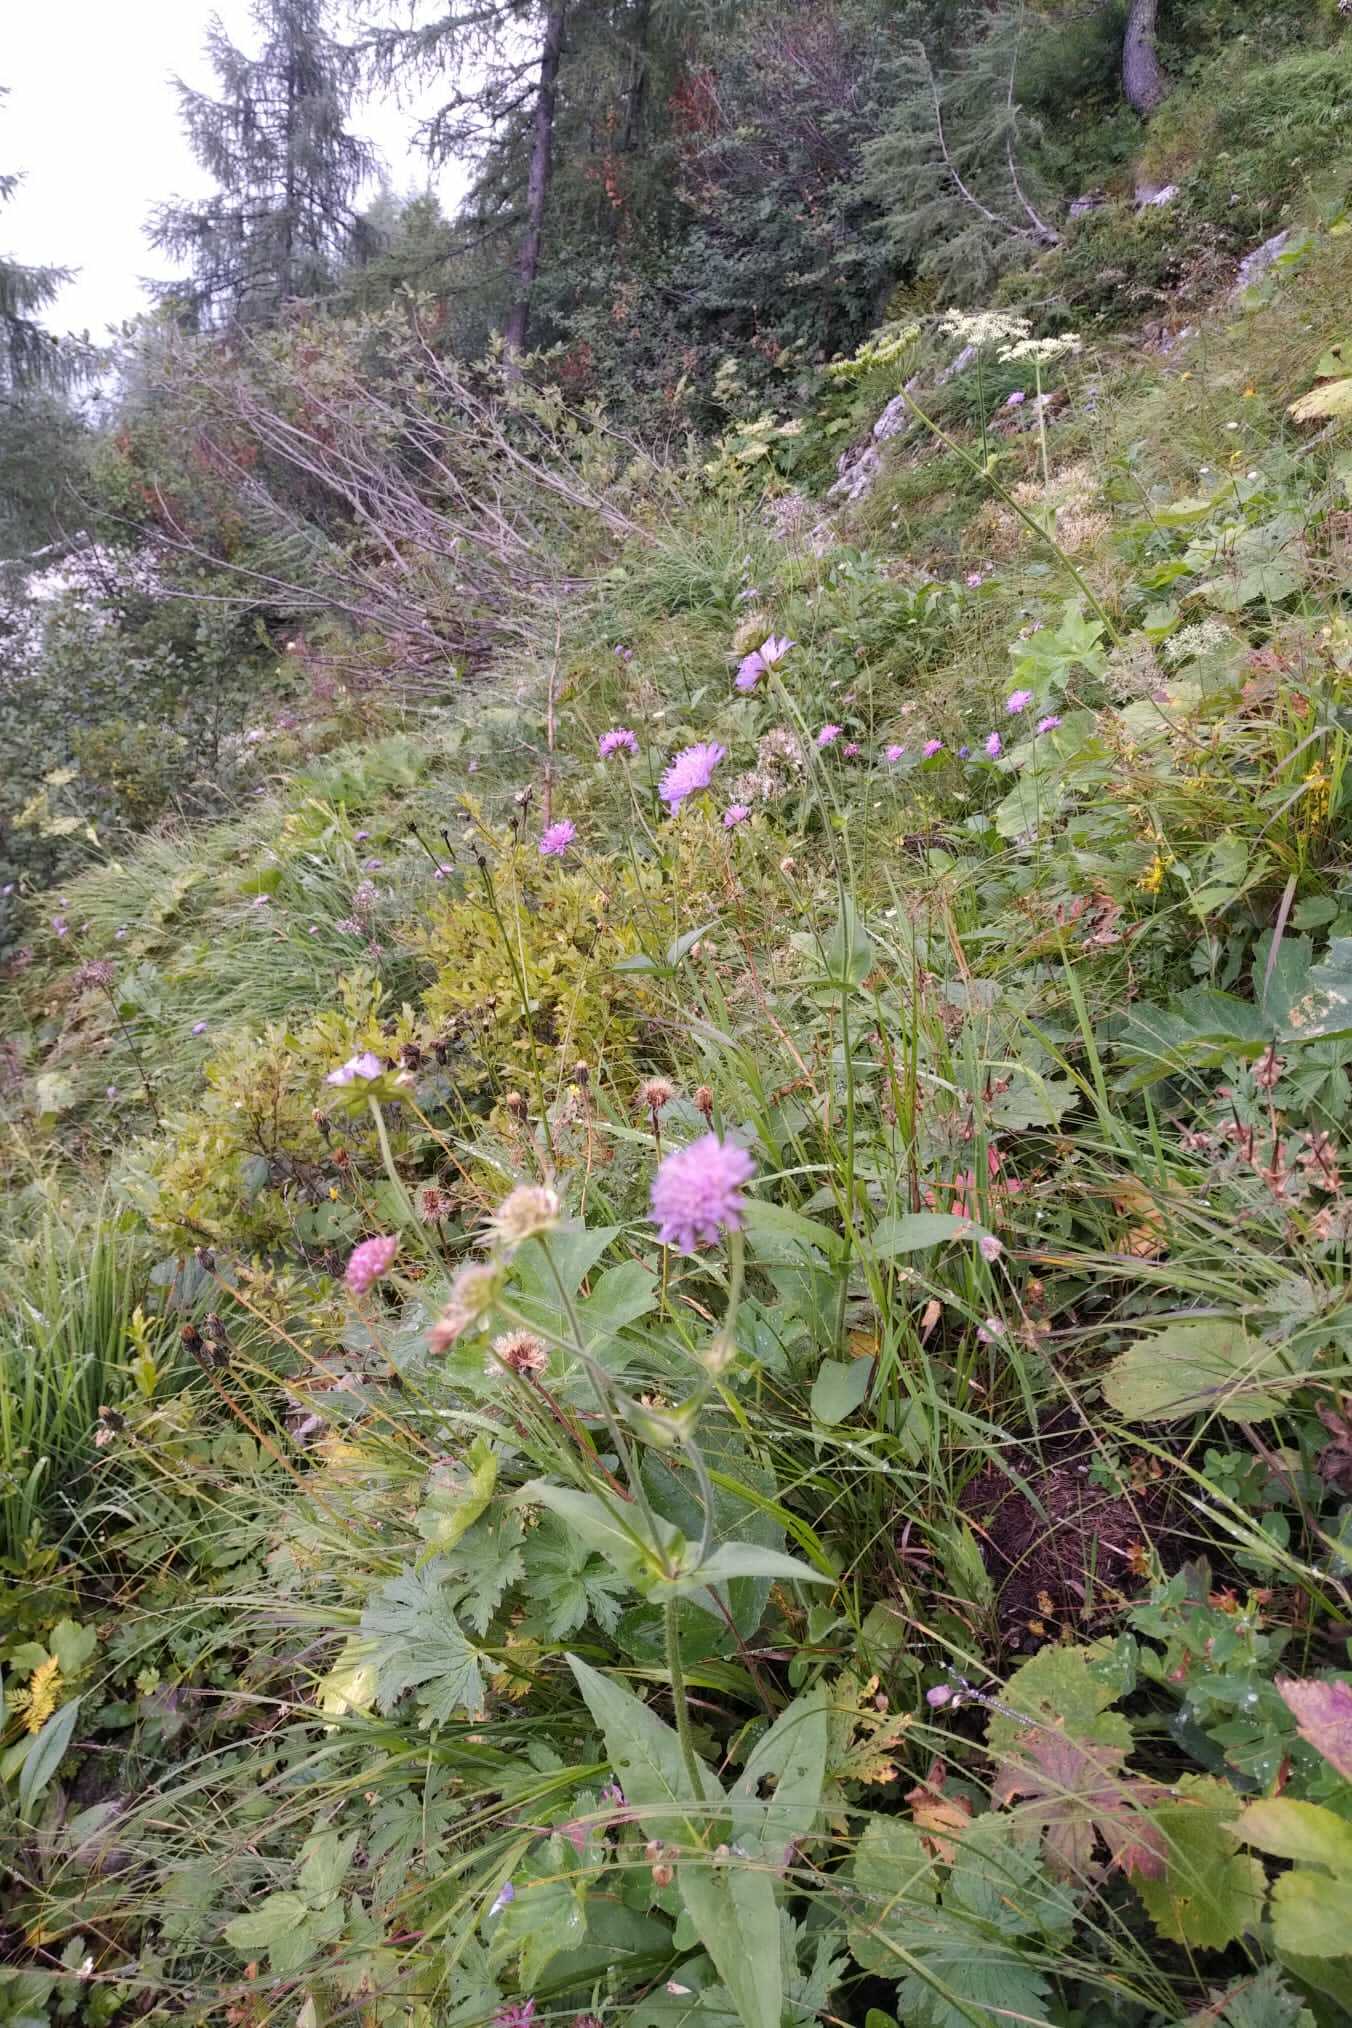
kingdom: Plantae
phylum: Tracheophyta
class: Magnoliopsida
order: Dipsacales
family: Caprifoliaceae
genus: Knautia
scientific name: Knautia dipsacifolia
